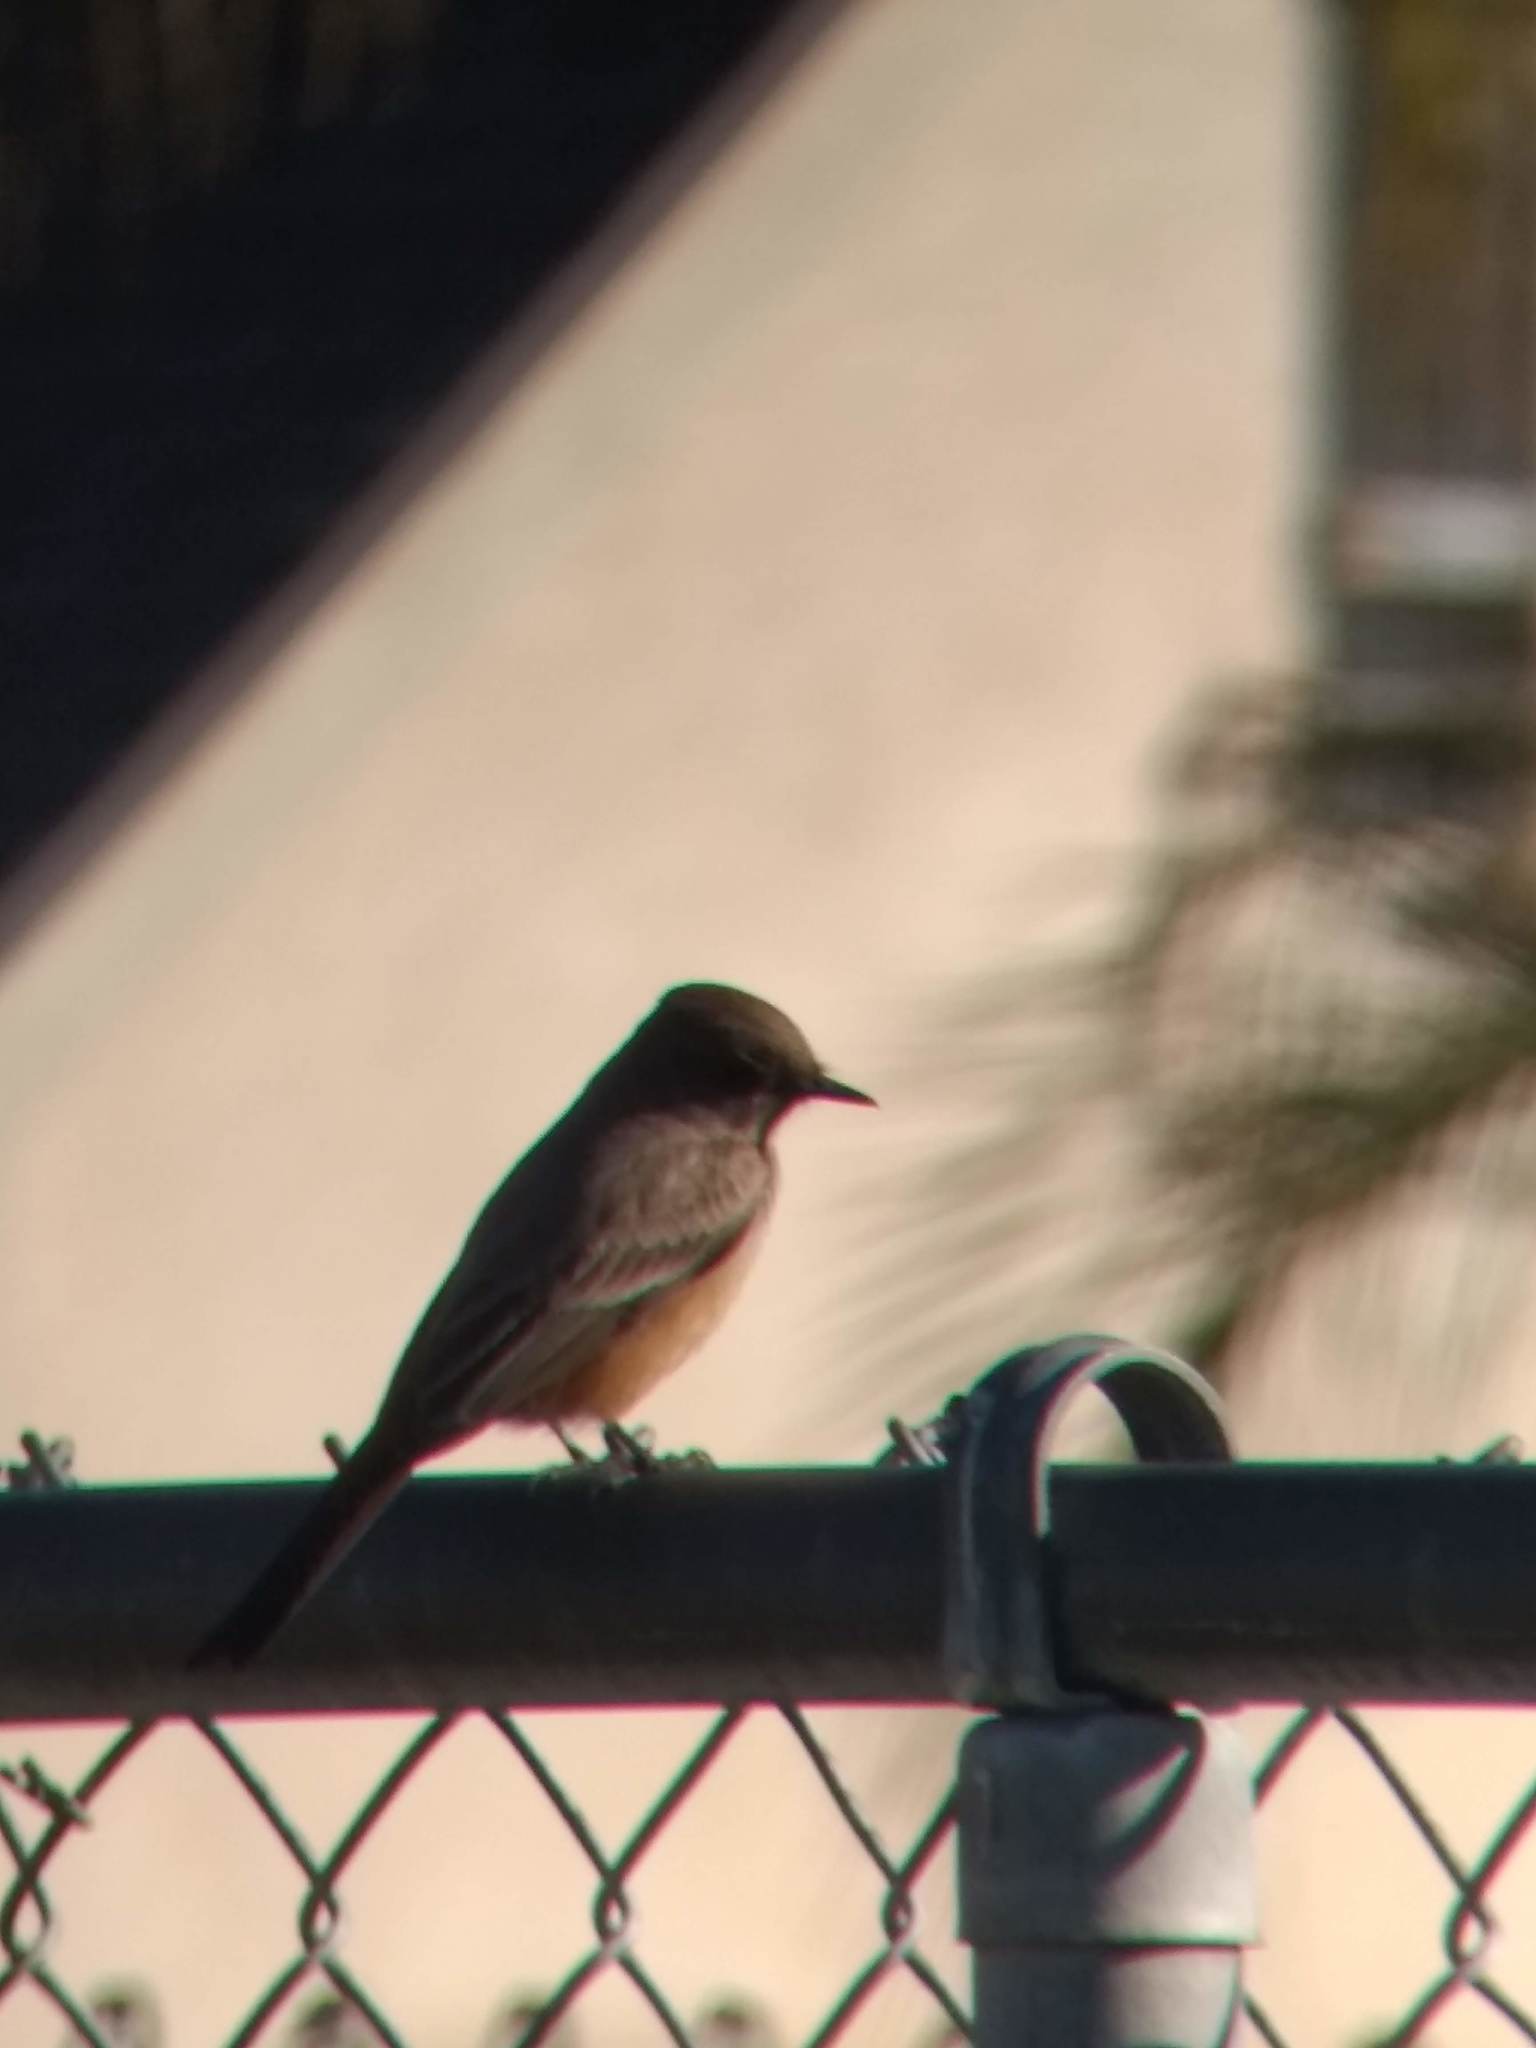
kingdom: Animalia
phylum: Chordata
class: Aves
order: Passeriformes
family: Tyrannidae
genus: Sayornis
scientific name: Sayornis saya
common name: Say's phoebe
